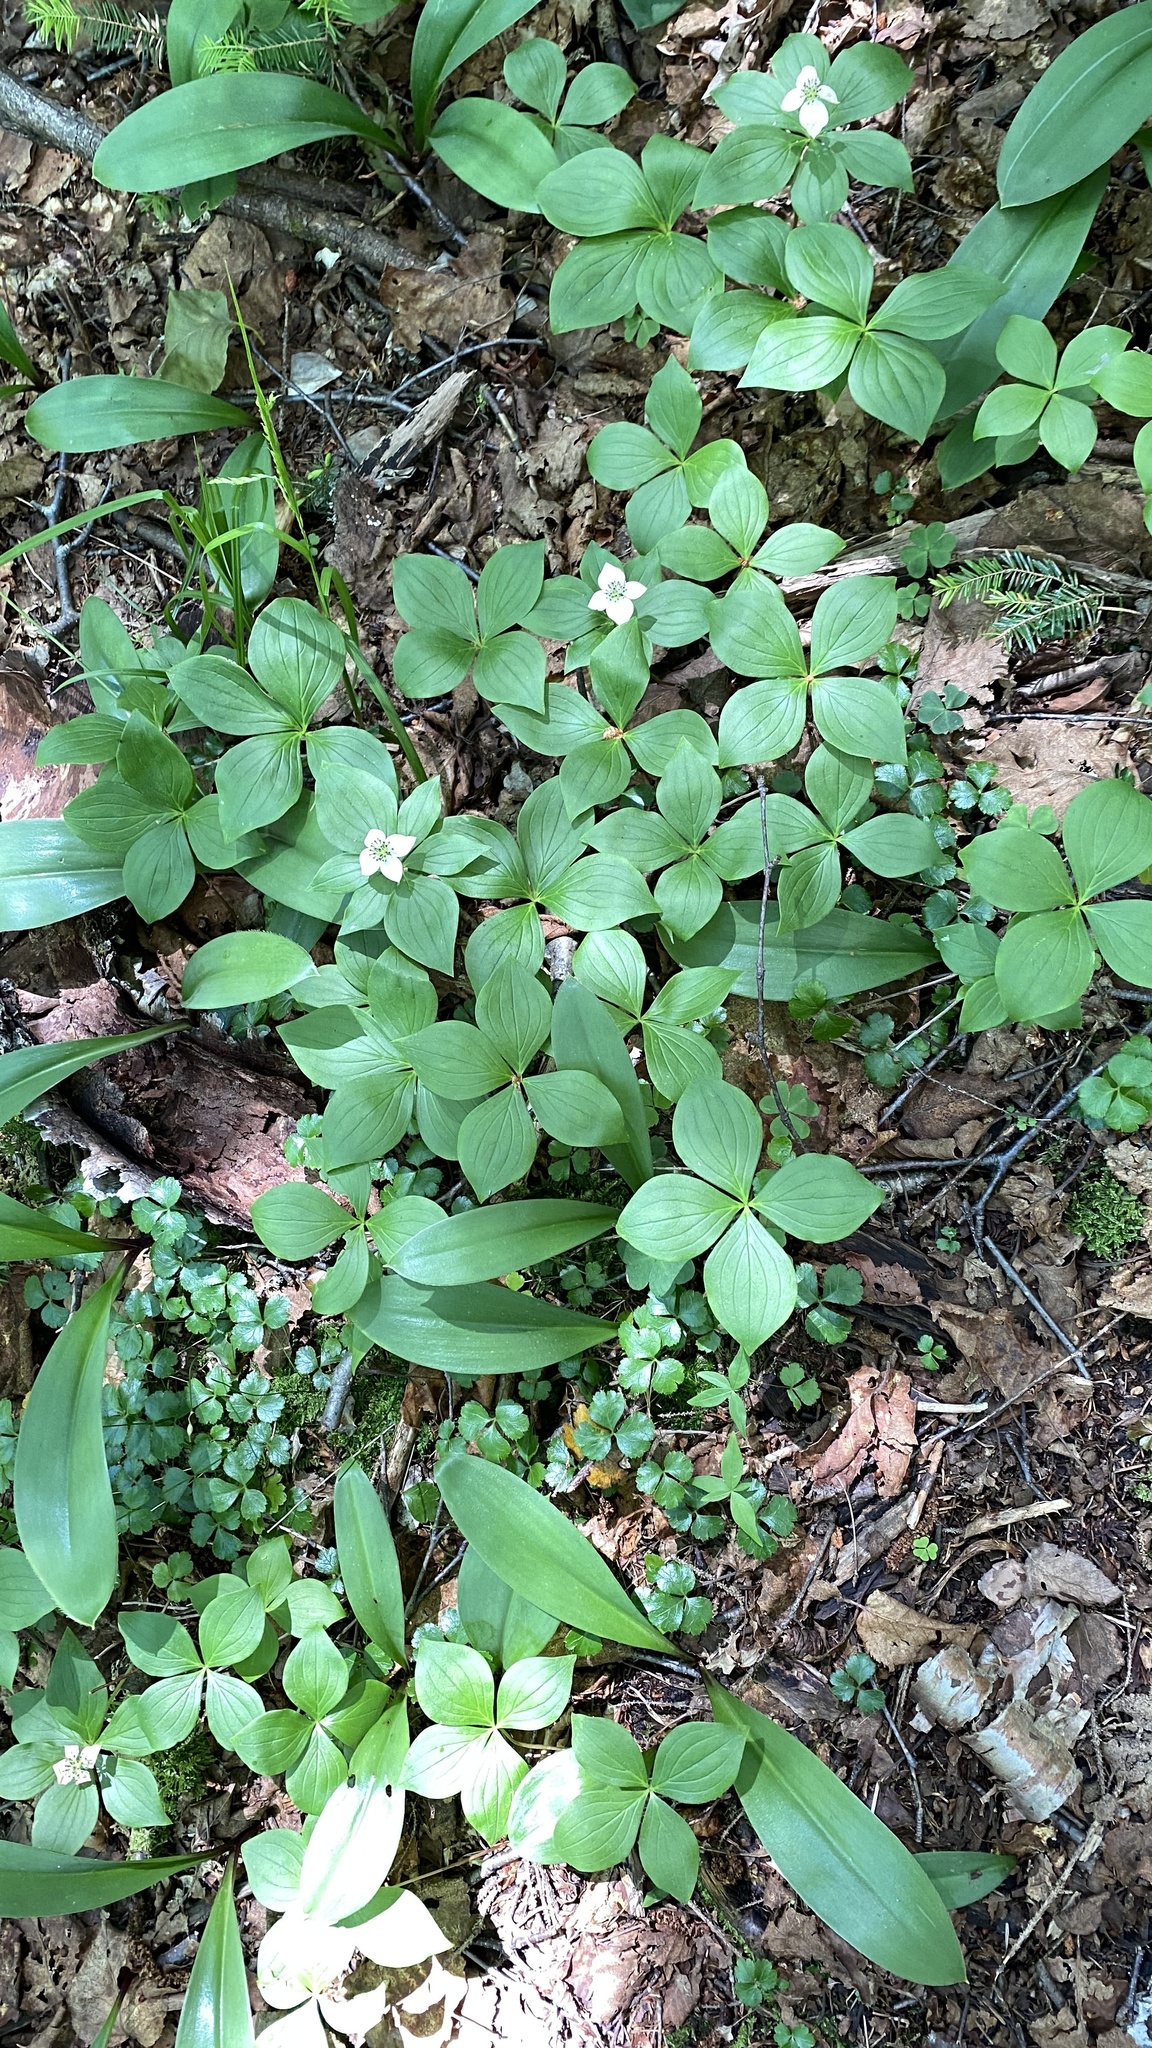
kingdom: Plantae
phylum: Tracheophyta
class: Magnoliopsida
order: Cornales
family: Cornaceae
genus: Cornus
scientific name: Cornus canadensis
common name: Creeping dogwood
